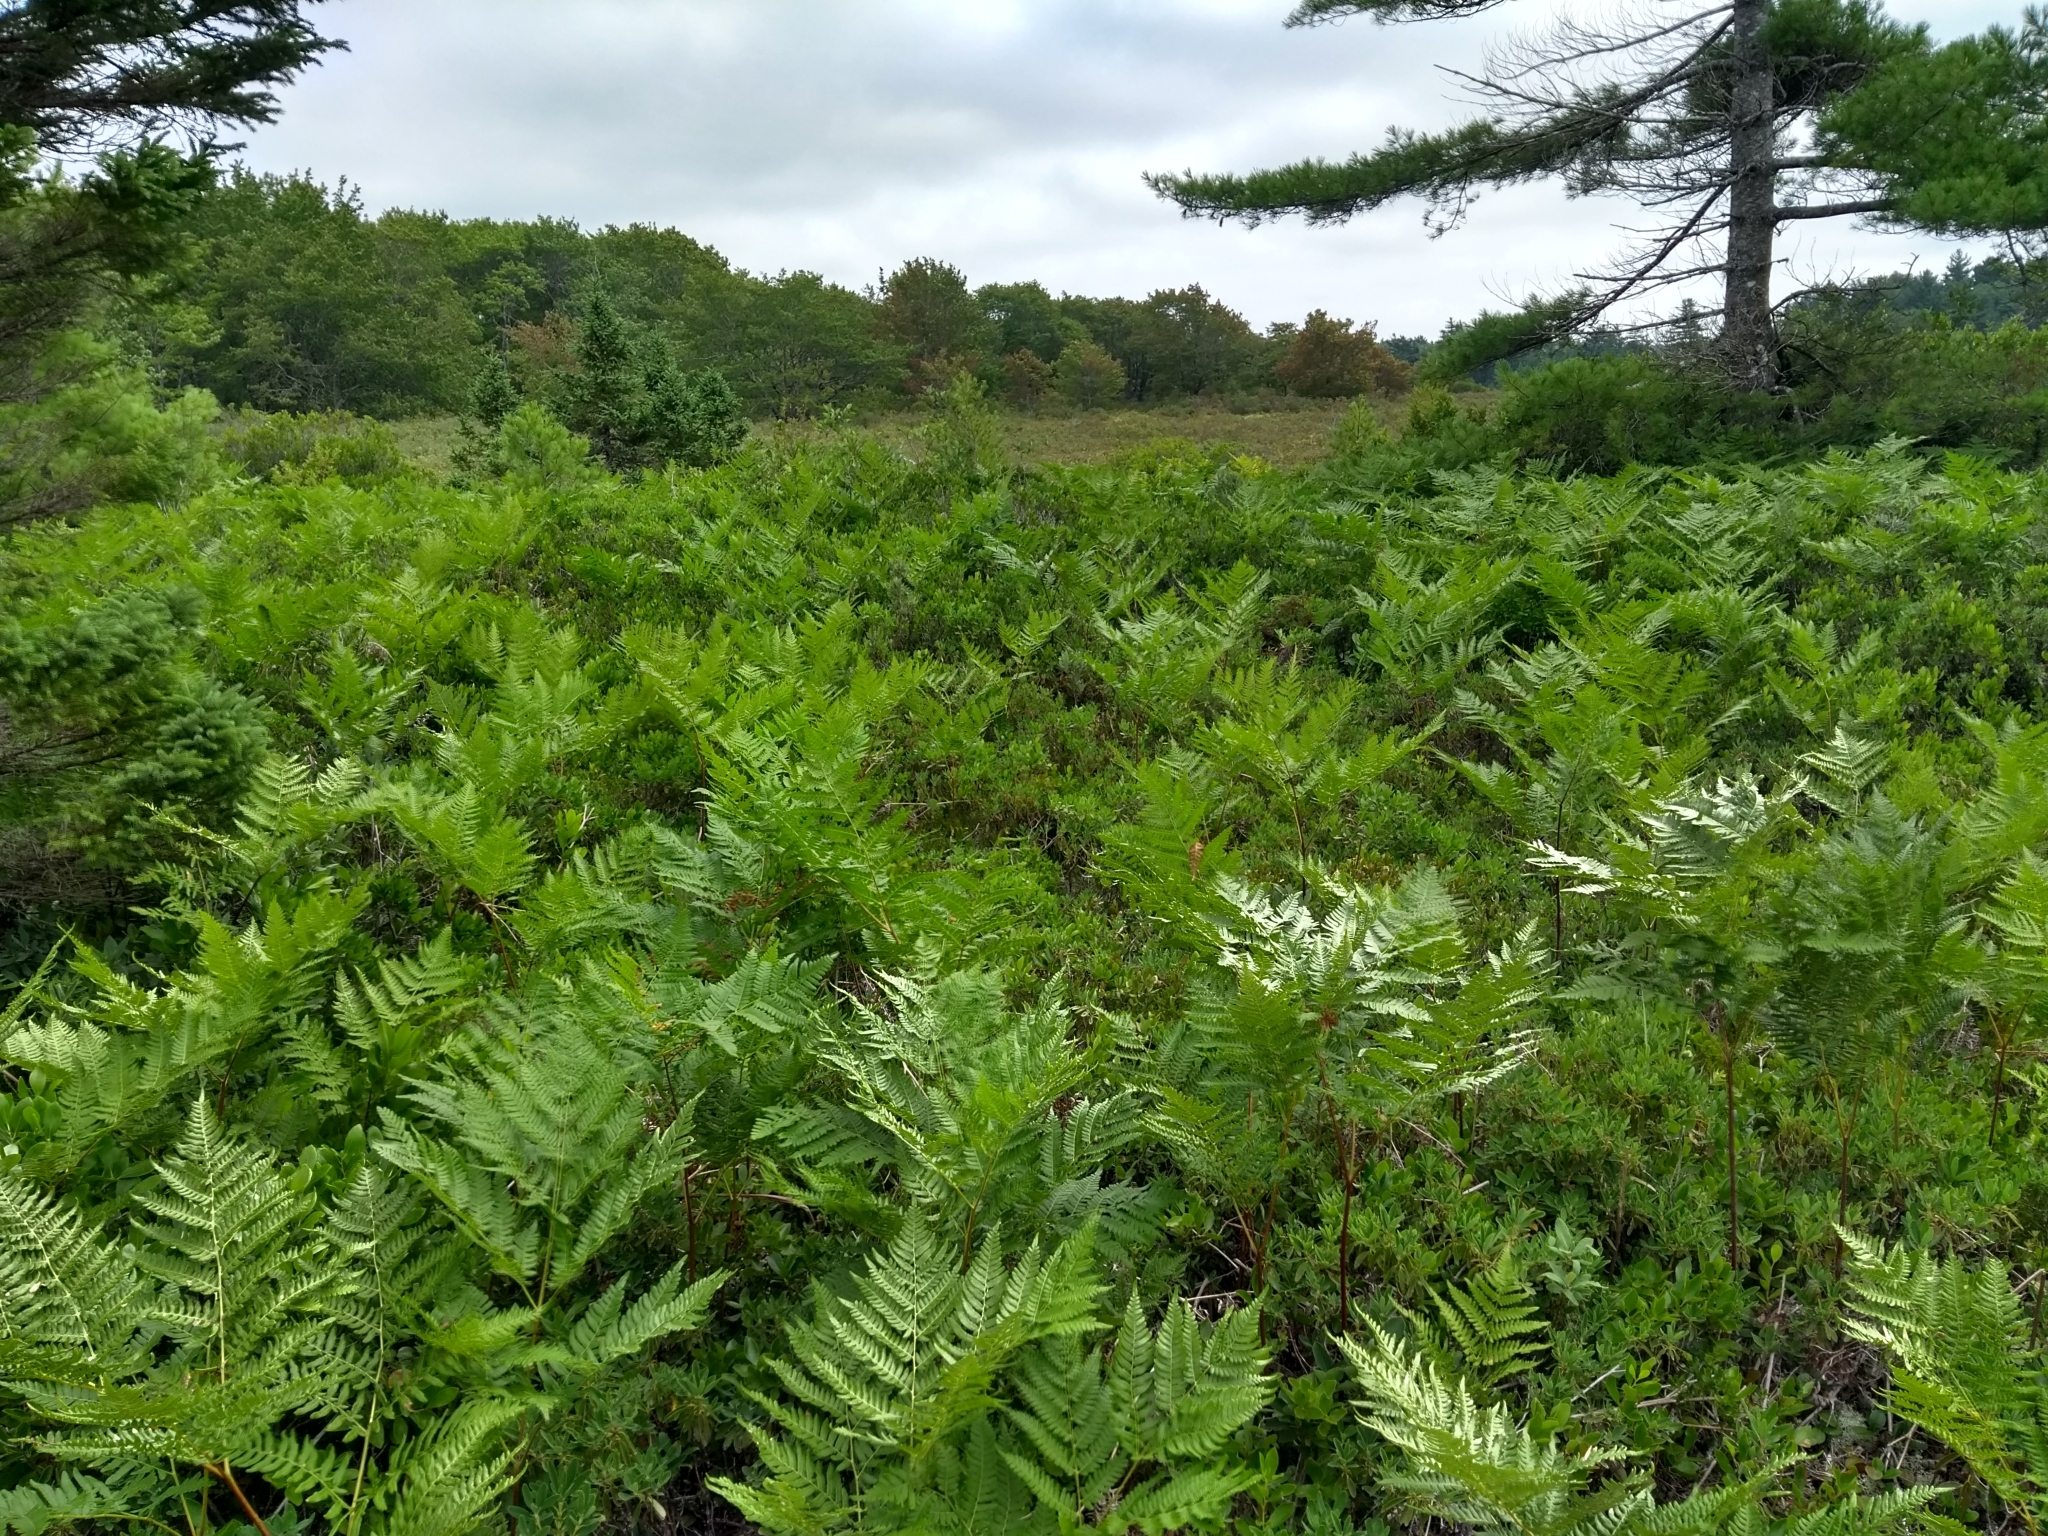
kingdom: Plantae
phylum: Tracheophyta
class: Polypodiopsida
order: Polypodiales
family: Dennstaedtiaceae
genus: Pteridium
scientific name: Pteridium aquilinum
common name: Bracken
